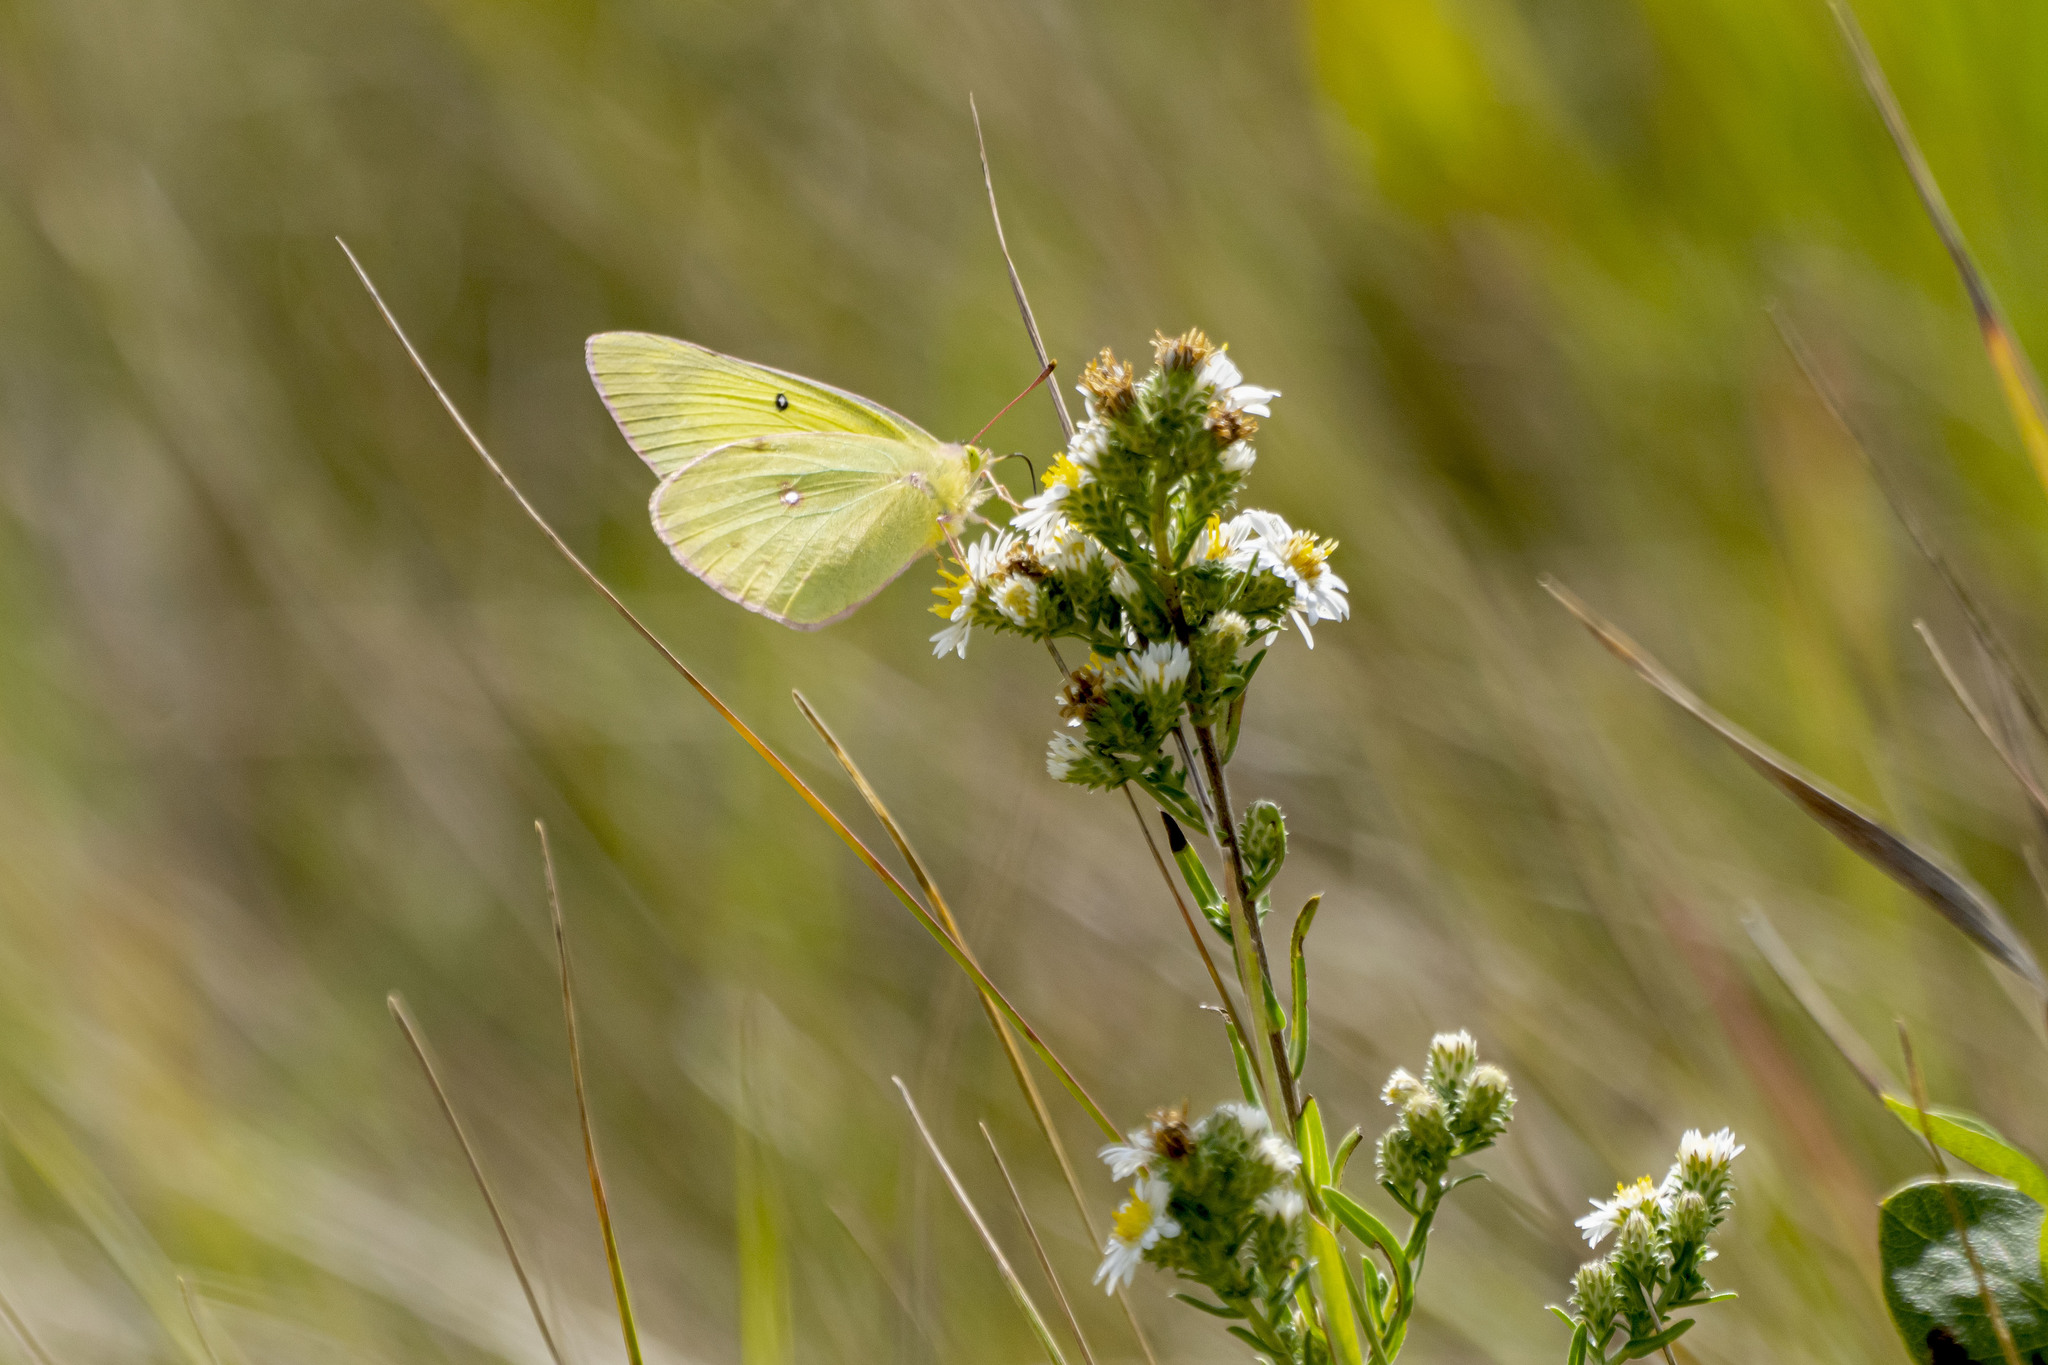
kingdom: Animalia
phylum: Arthropoda
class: Insecta
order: Lepidoptera
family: Pieridae
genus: Colias
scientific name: Colias philodice
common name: Clouded sulphur
